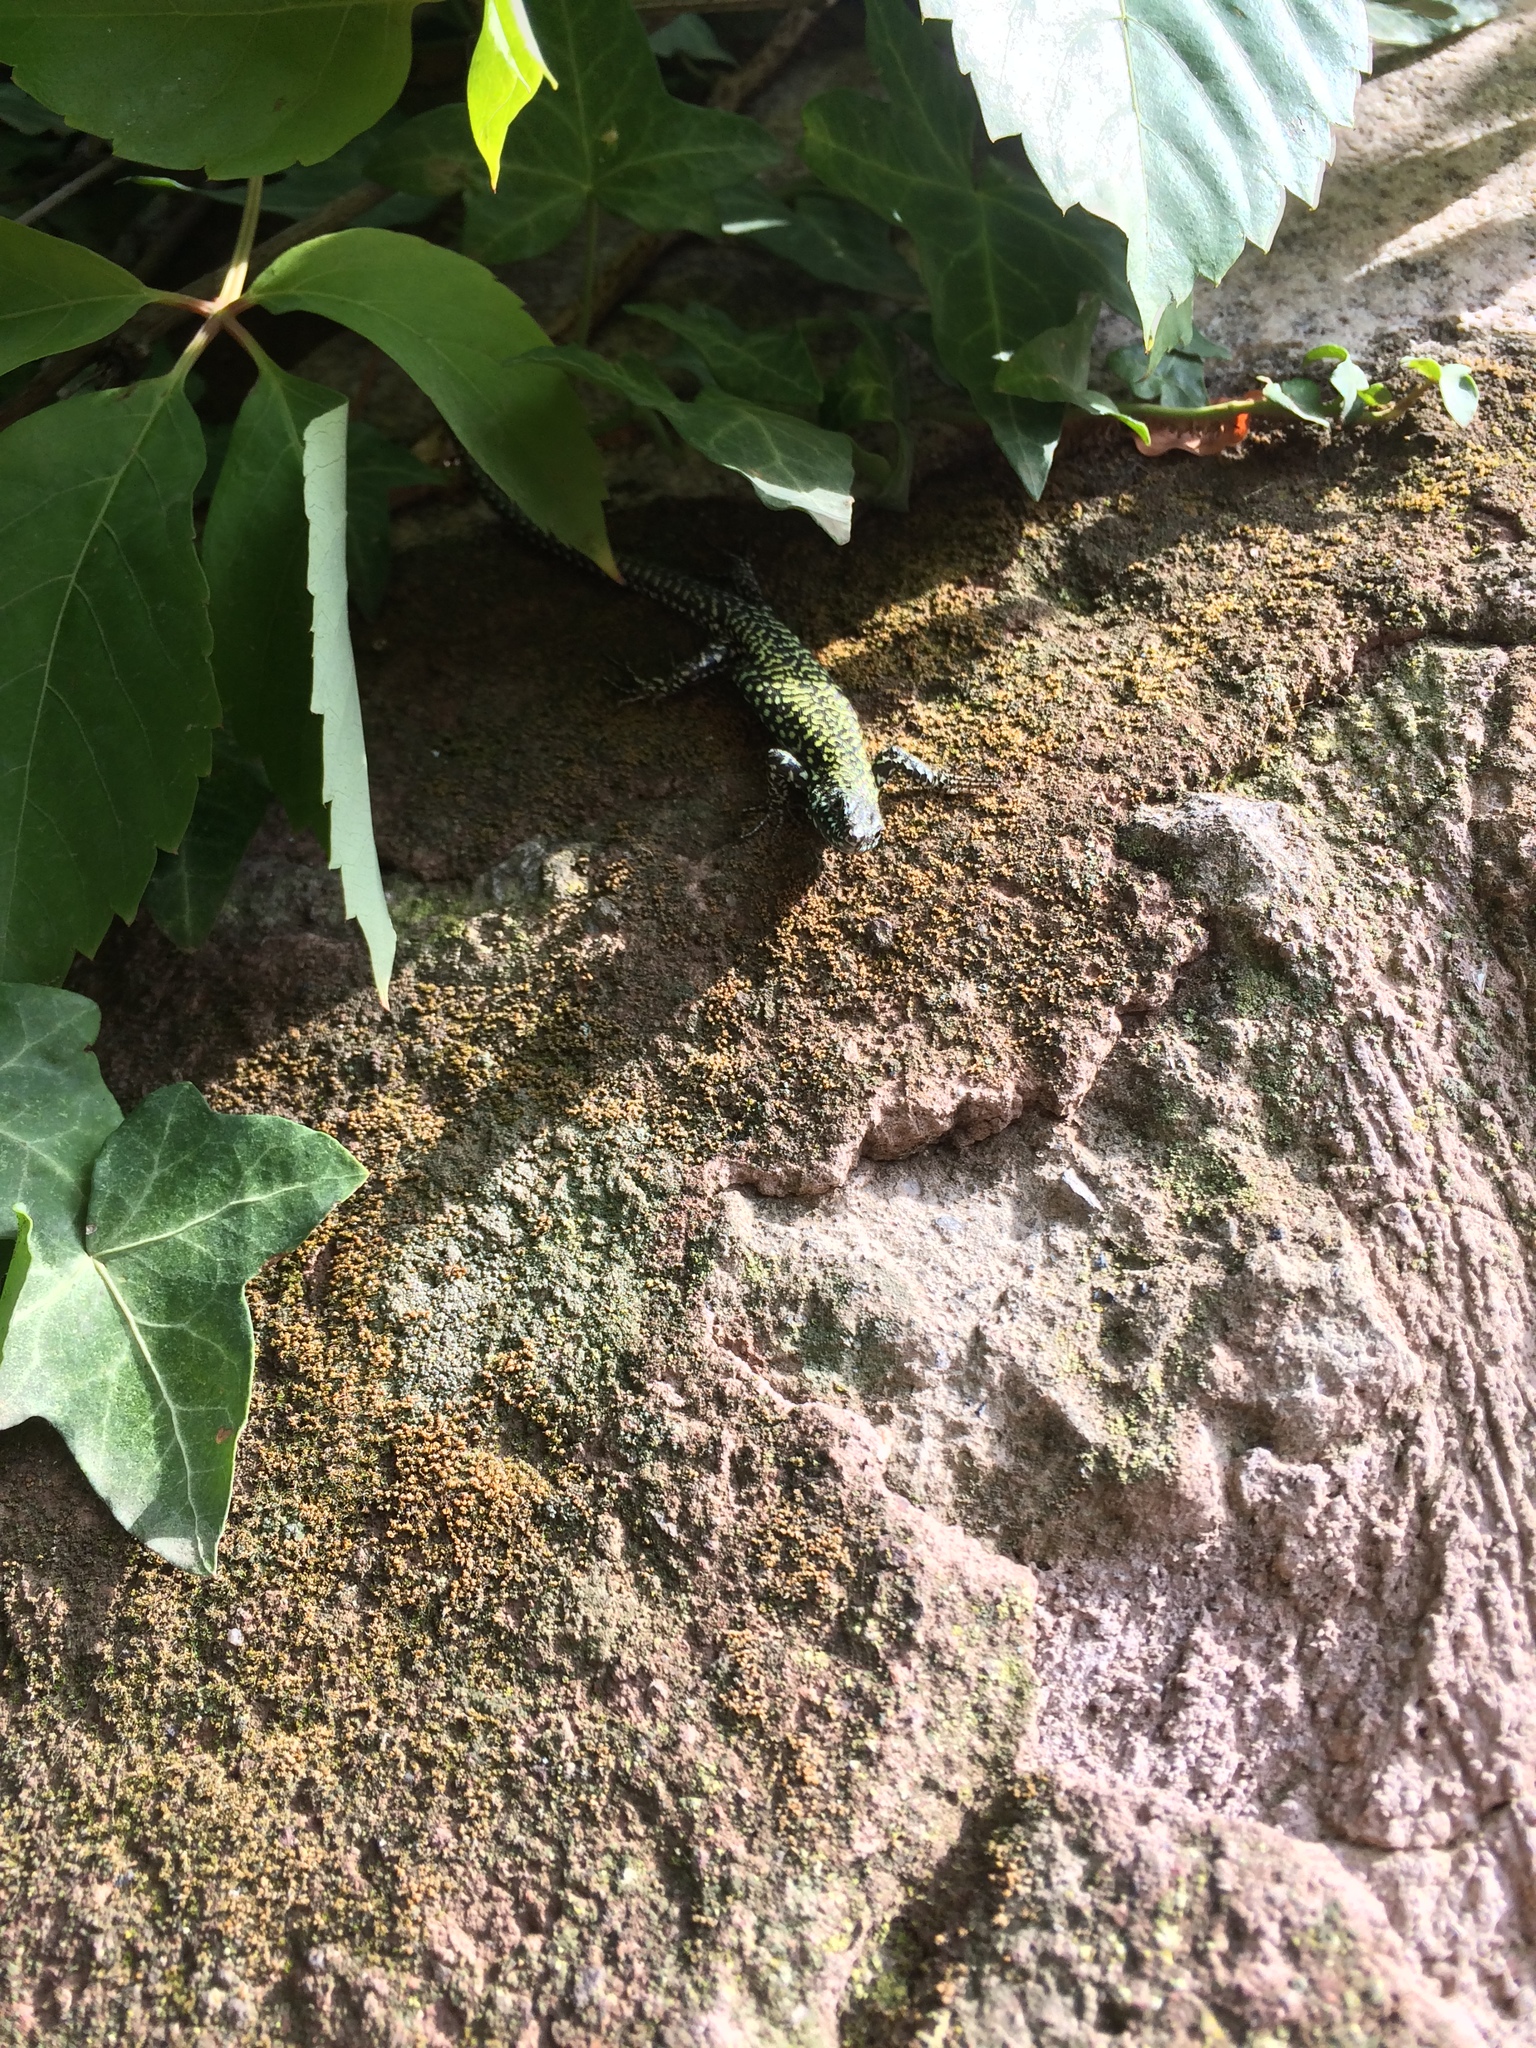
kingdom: Animalia
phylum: Chordata
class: Squamata
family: Lacertidae
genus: Podarcis
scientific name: Podarcis muralis
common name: Common wall lizard
